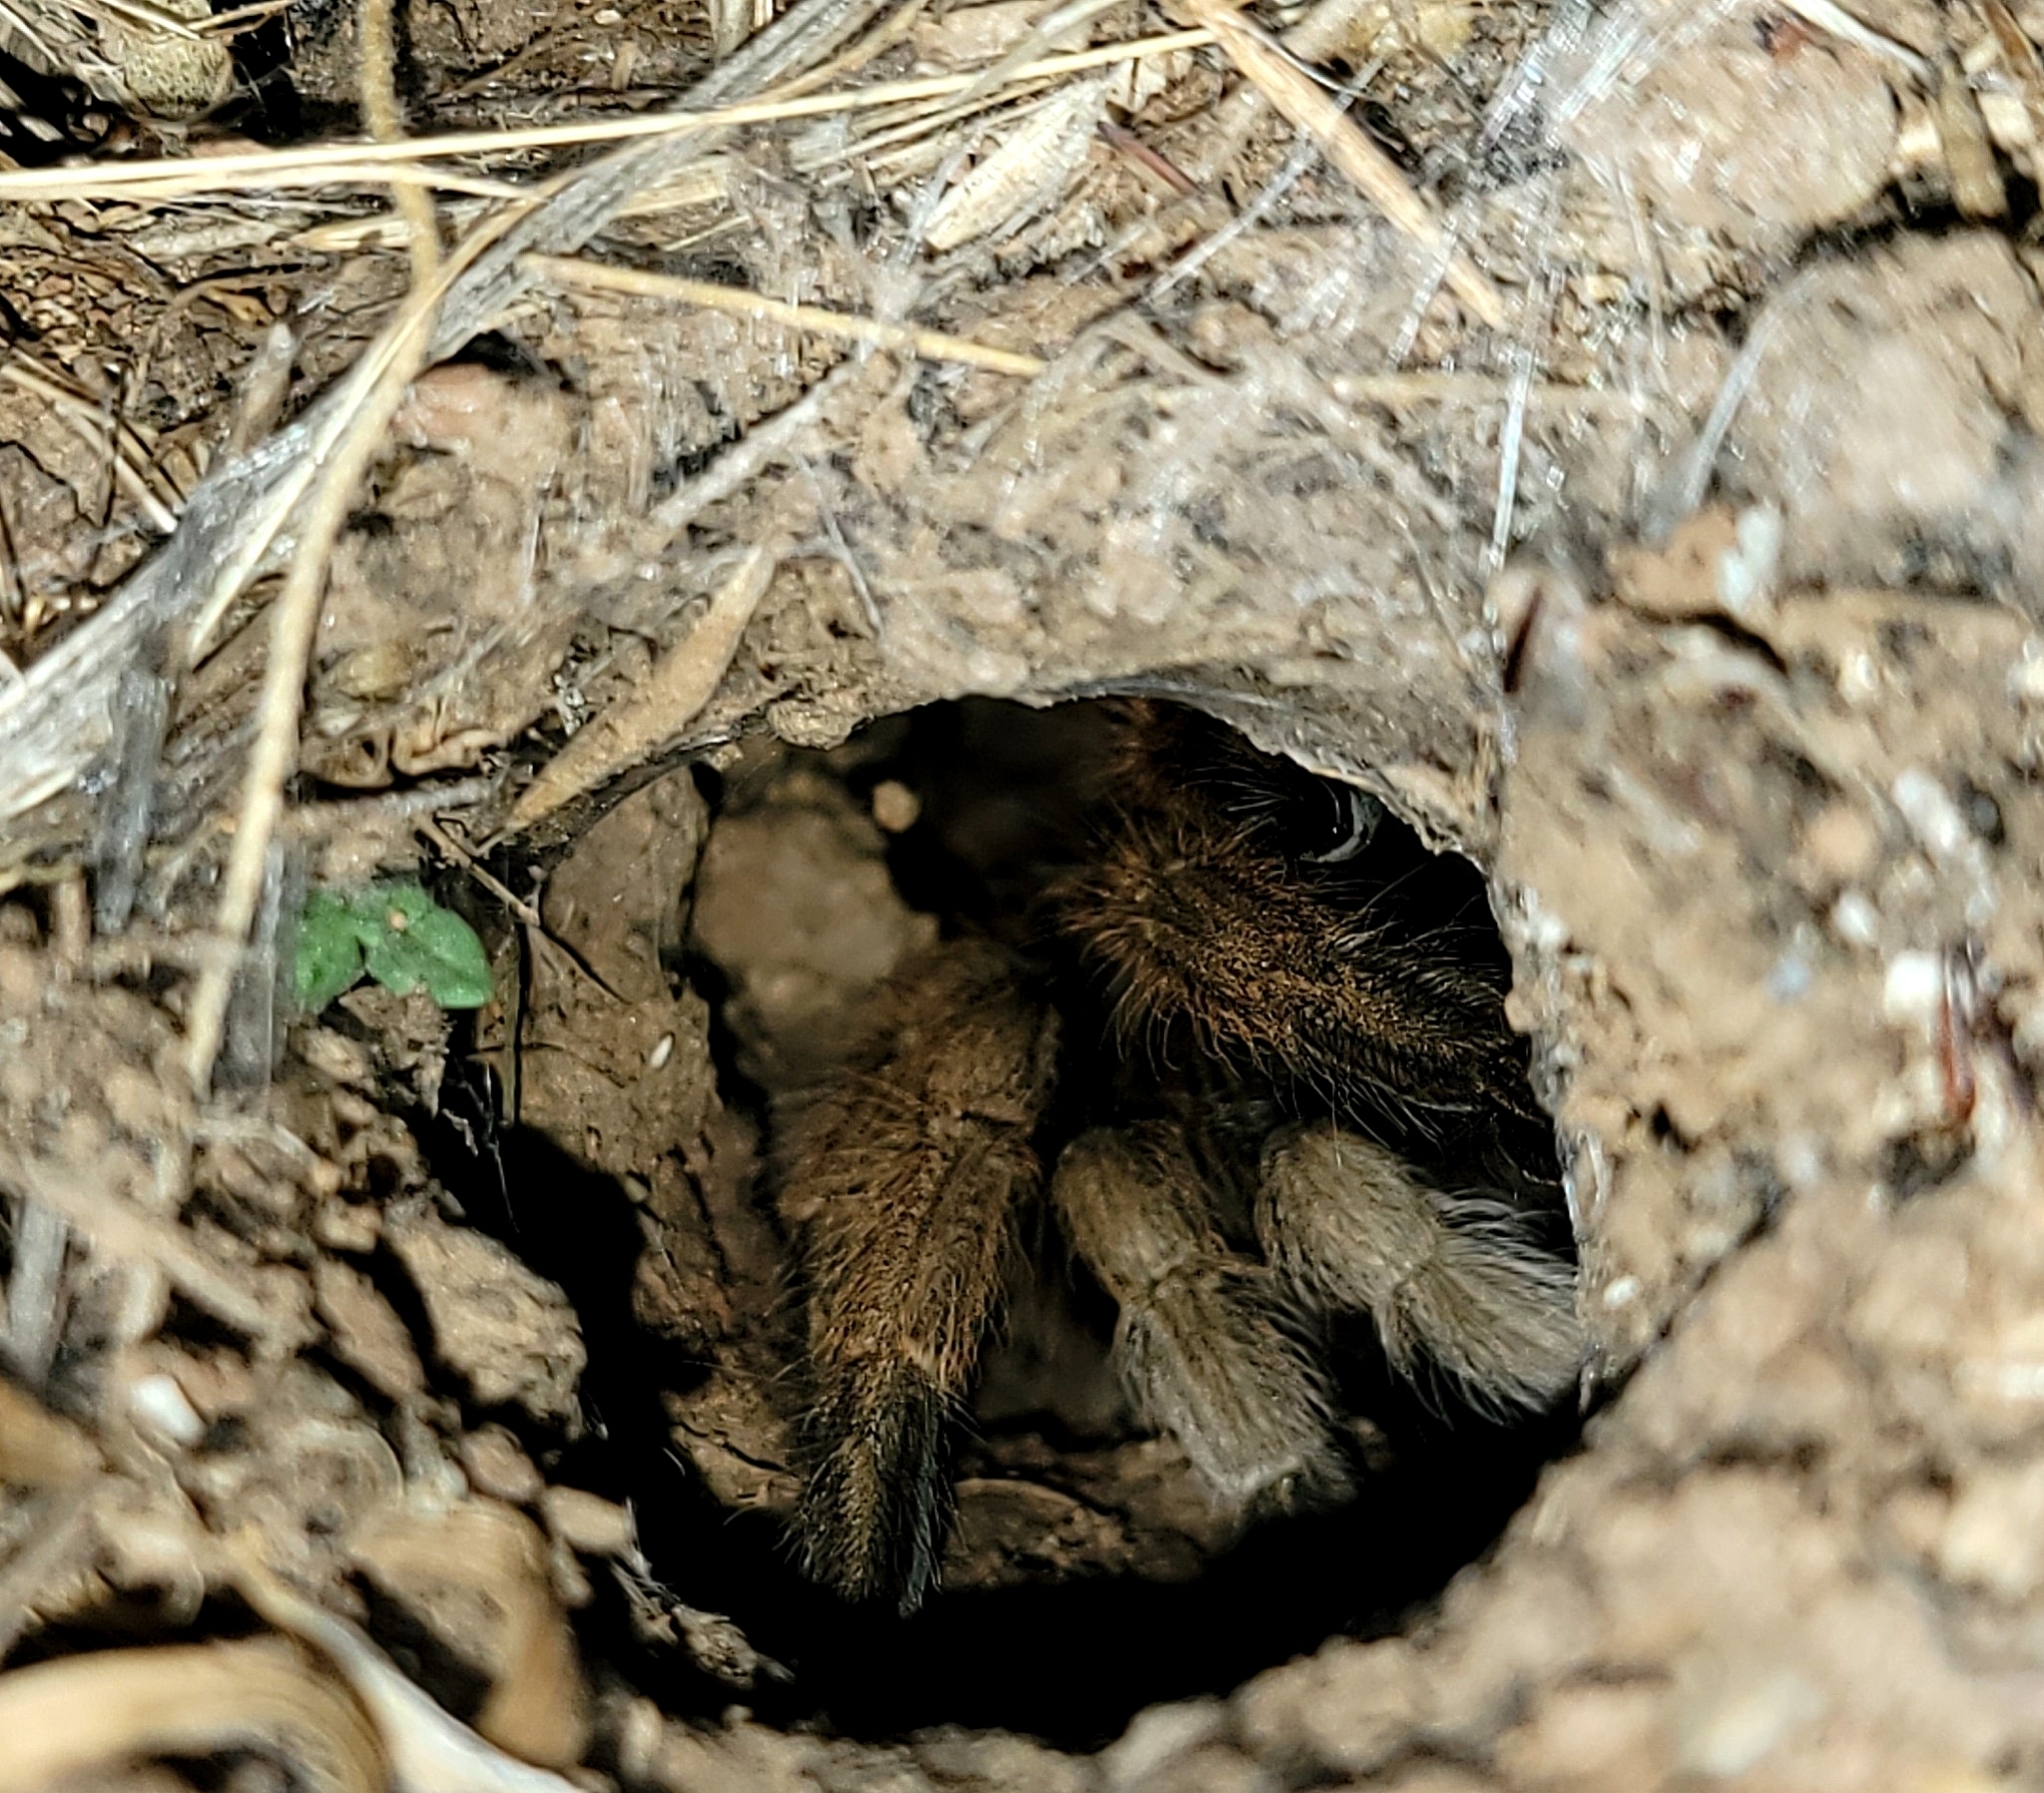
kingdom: Animalia
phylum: Arthropoda
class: Arachnida
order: Araneae
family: Theraphosidae
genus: Aphonopelma
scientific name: Aphonopelma iodius
